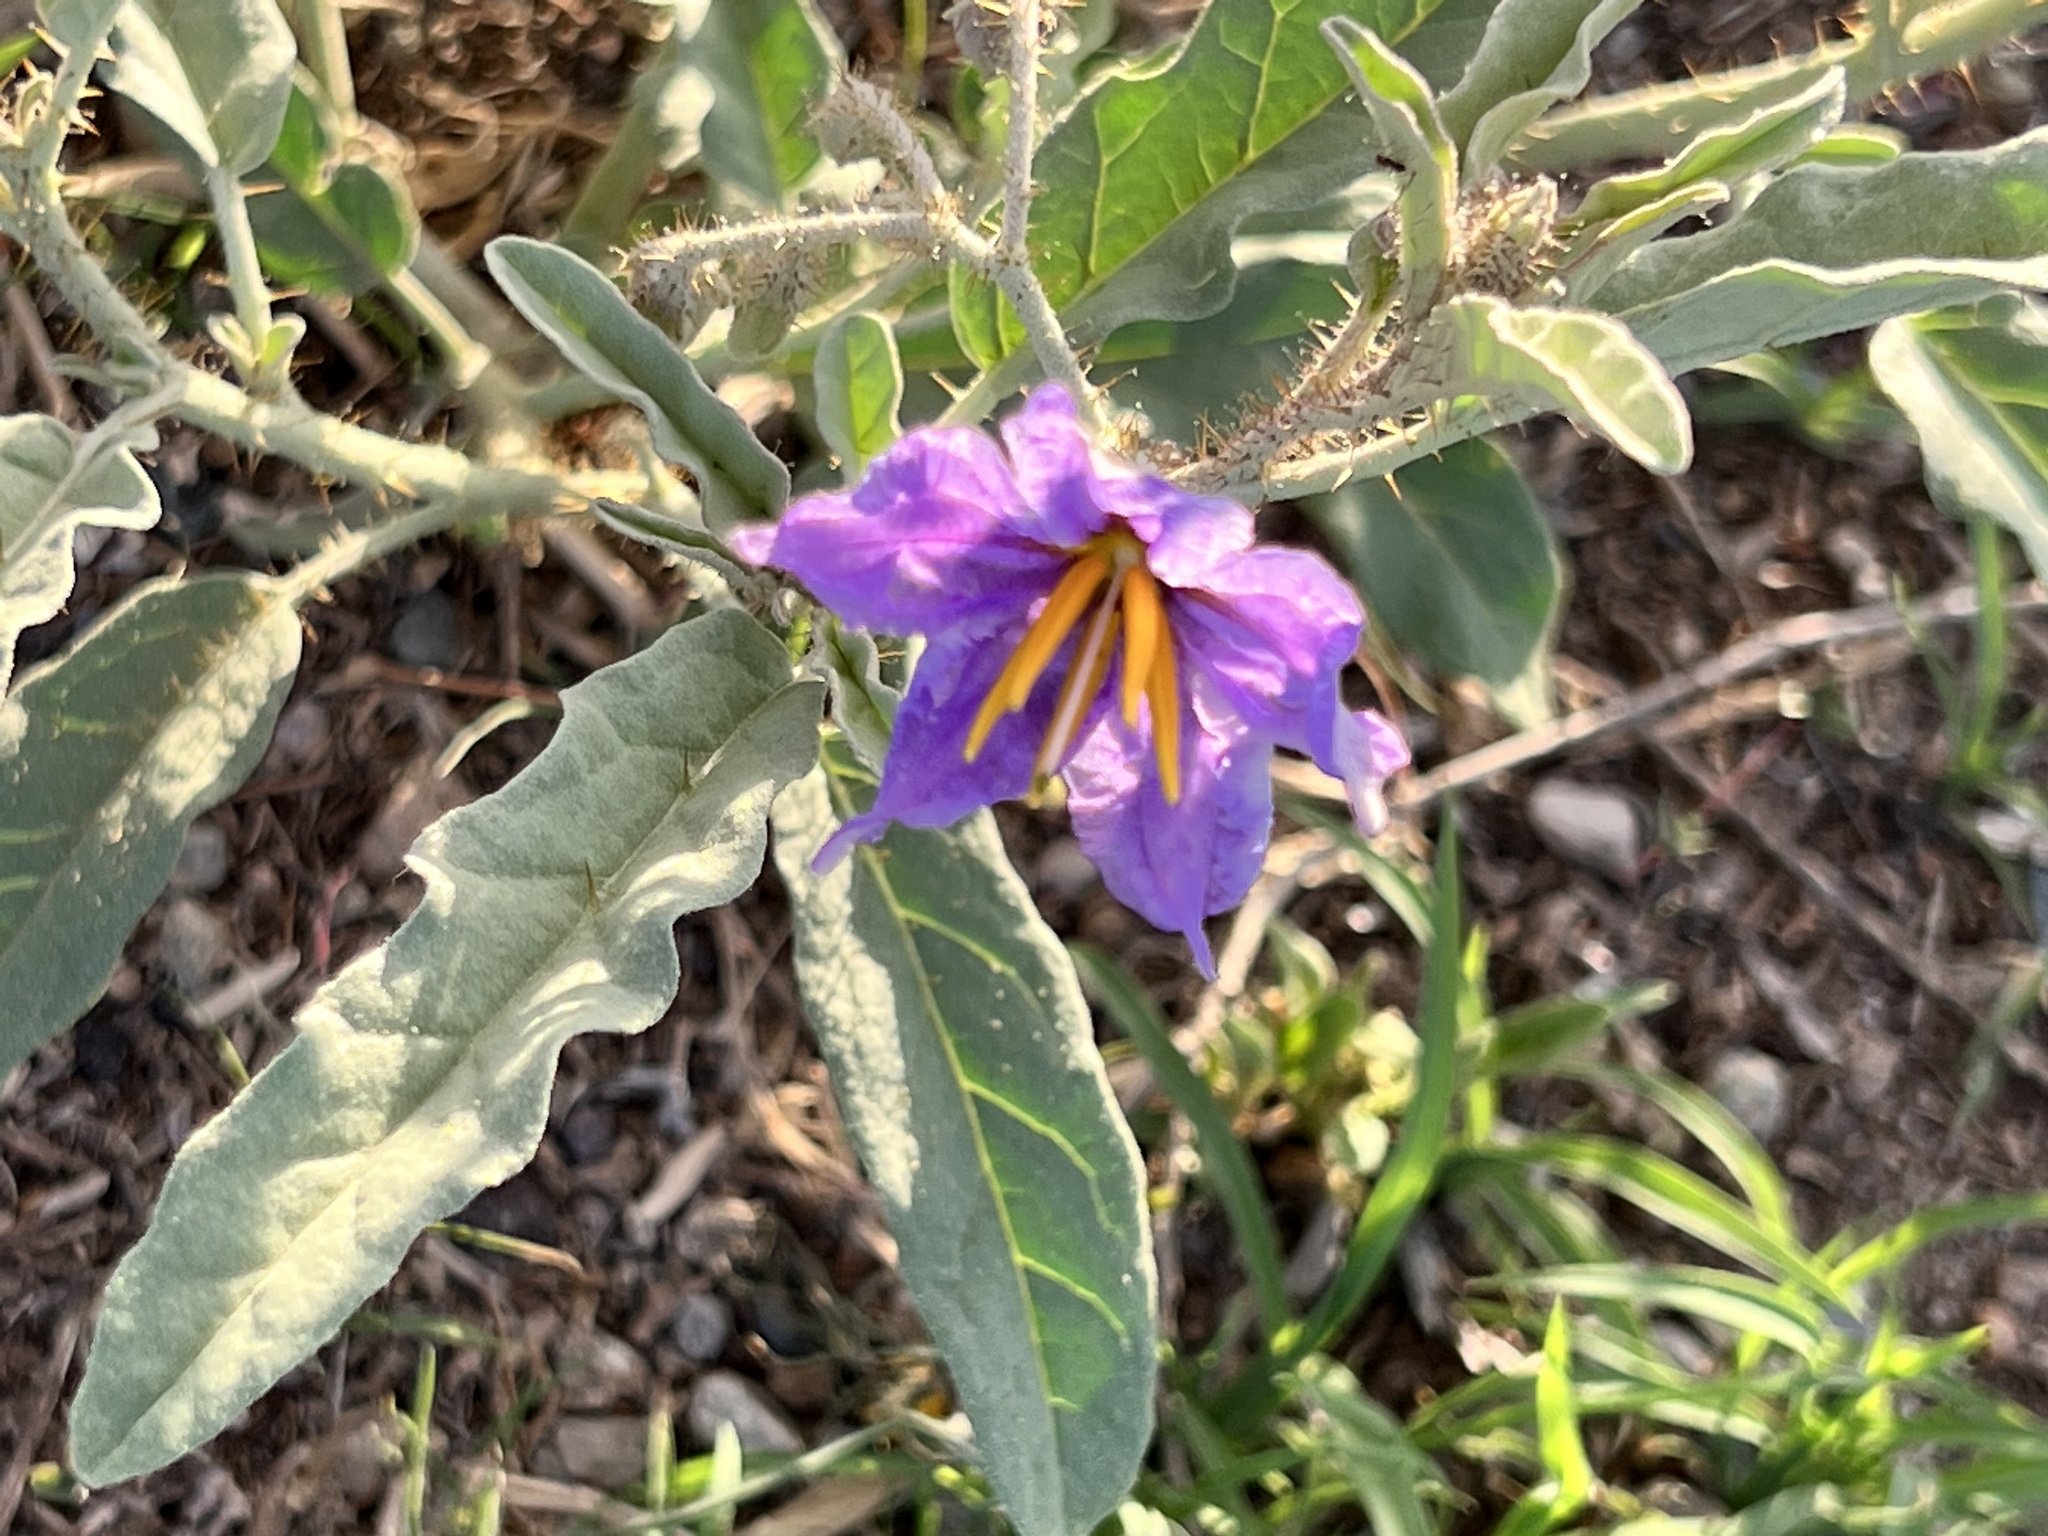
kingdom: Plantae
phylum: Tracheophyta
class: Magnoliopsida
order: Solanales
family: Solanaceae
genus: Solanum
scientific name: Solanum elaeagnifolium
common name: Silverleaf nightshade
